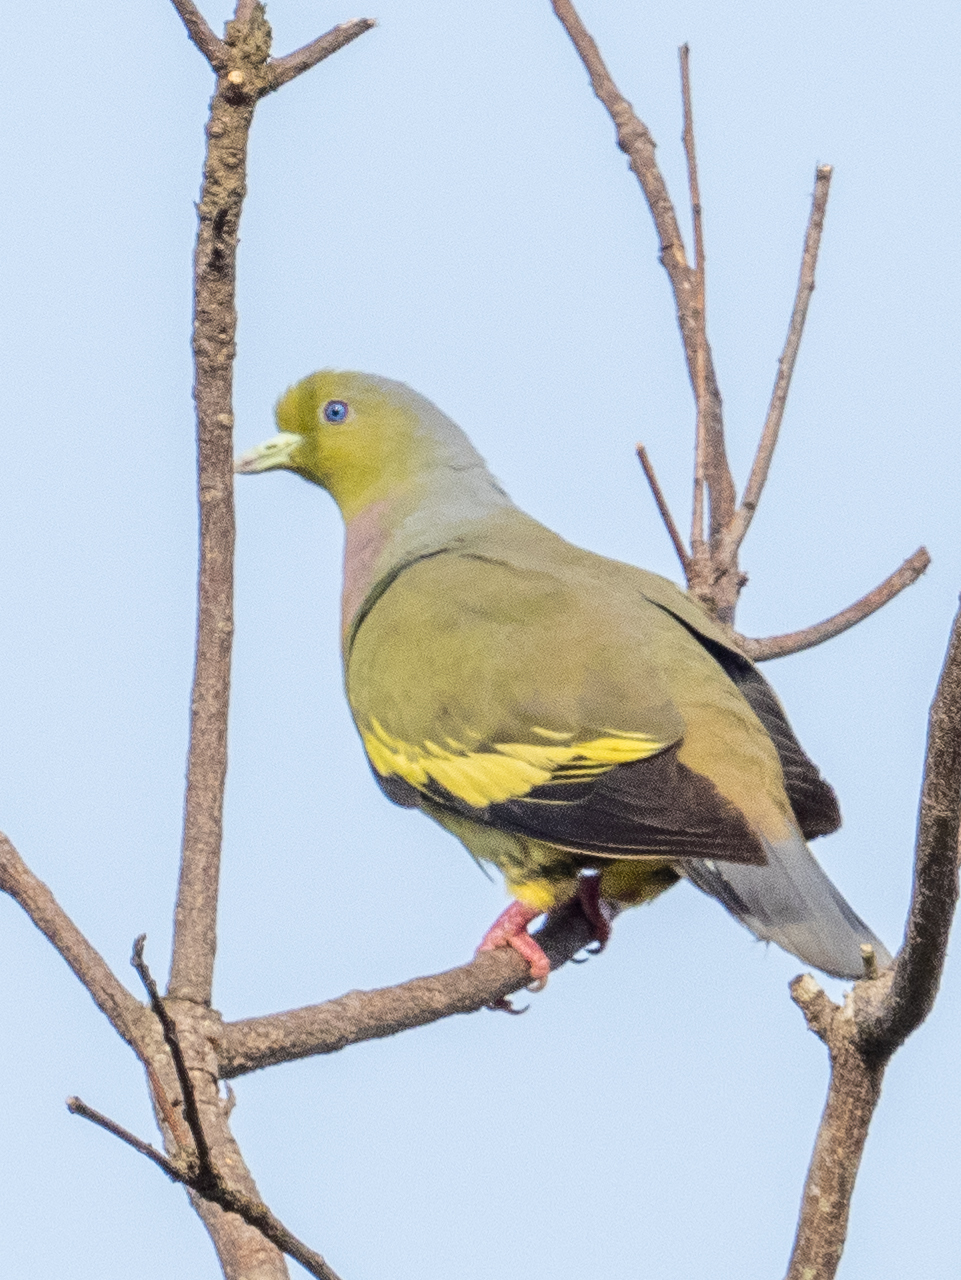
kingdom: Animalia
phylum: Chordata
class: Aves
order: Columbiformes
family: Columbidae
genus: Treron
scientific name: Treron bicinctus
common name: Orange-breasted green pigeon
